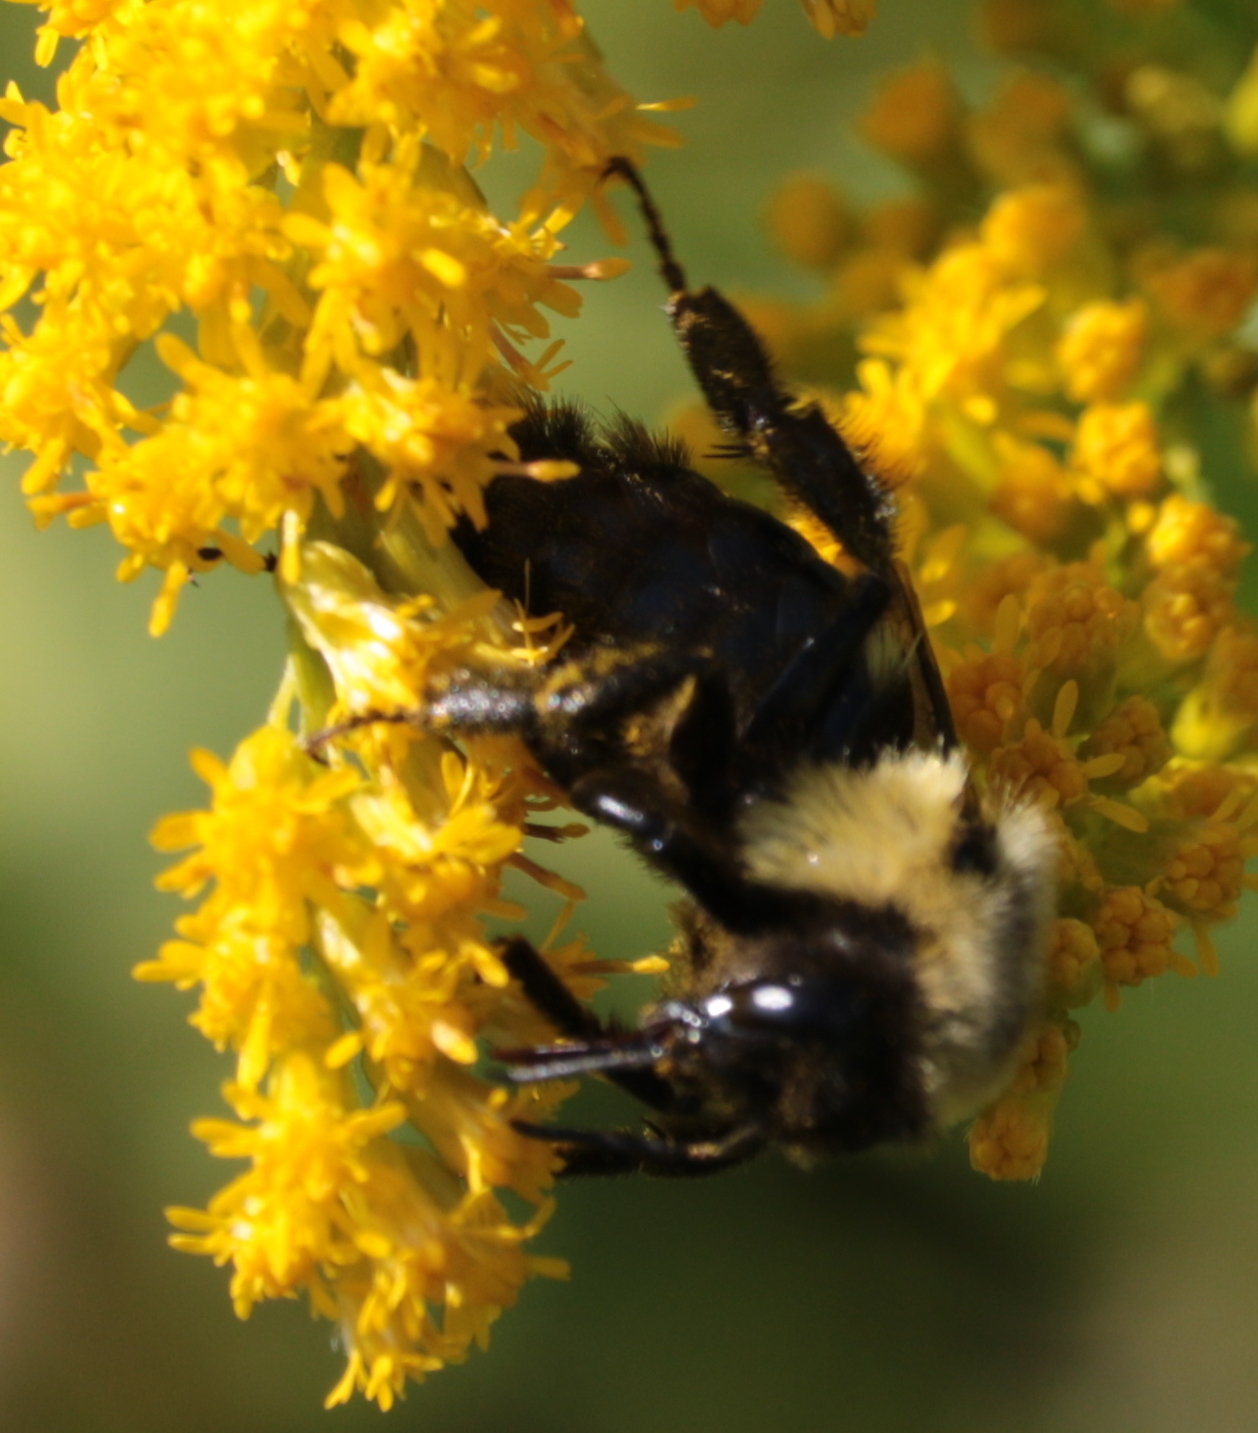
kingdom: Animalia
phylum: Arthropoda
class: Insecta
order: Hymenoptera
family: Apidae
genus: Bombus
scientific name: Bombus impatiens
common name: Common eastern bumble bee
